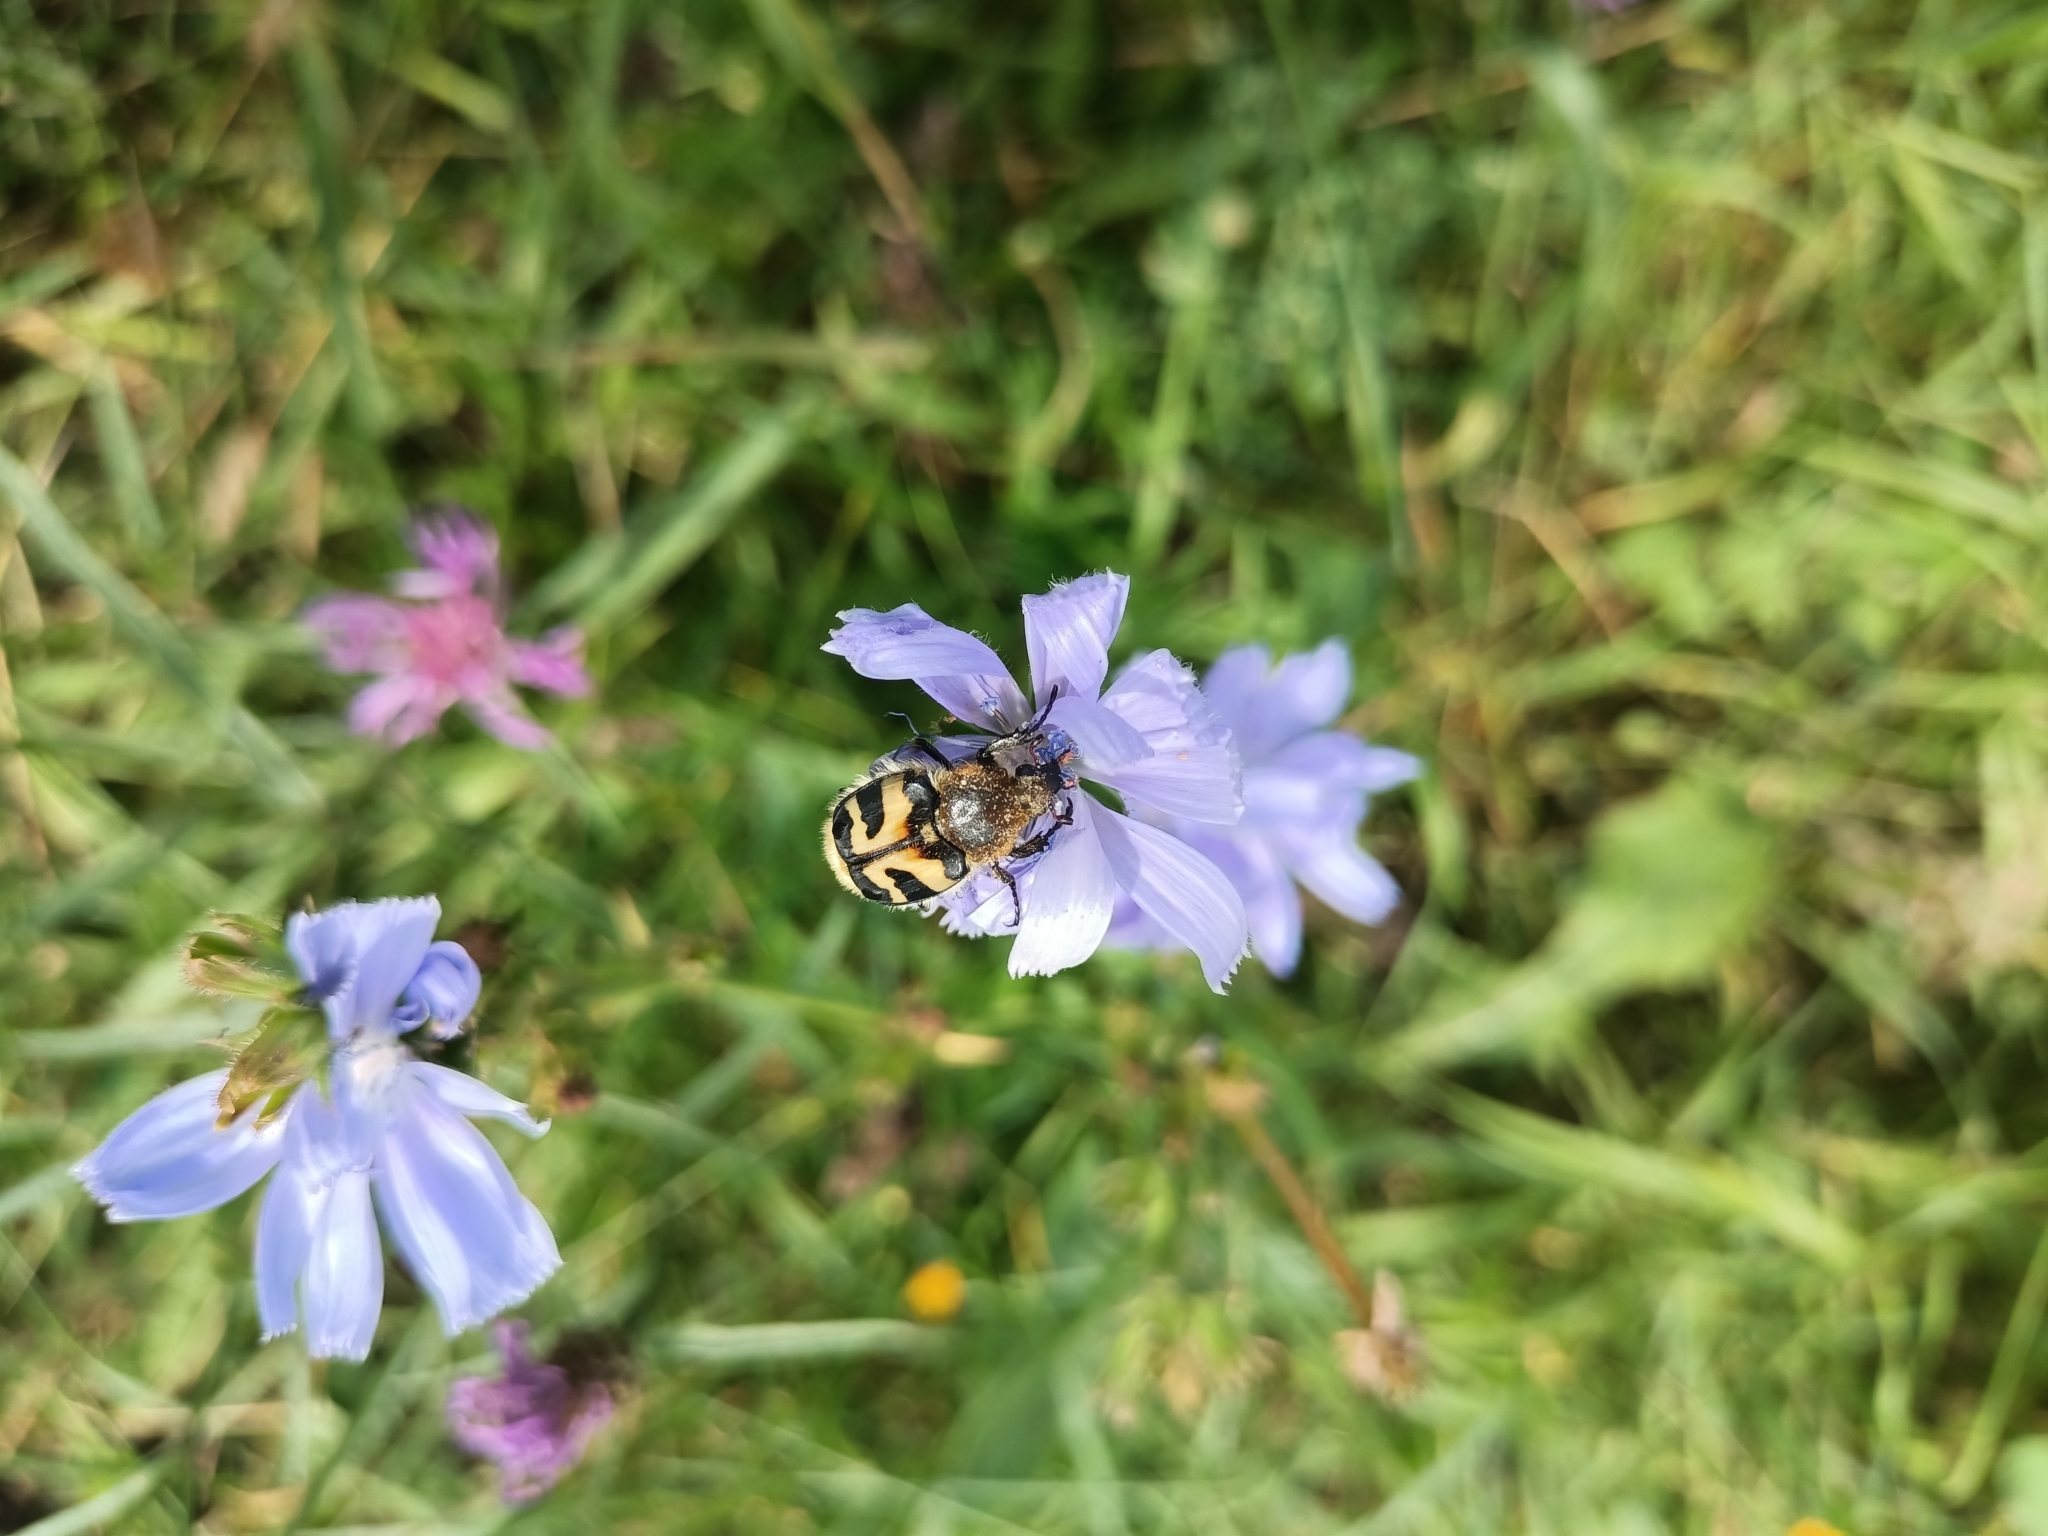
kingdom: Animalia
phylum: Arthropoda
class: Insecta
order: Coleoptera
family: Scarabaeidae
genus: Trichius
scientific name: Trichius fasciatus
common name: Bee beetle
